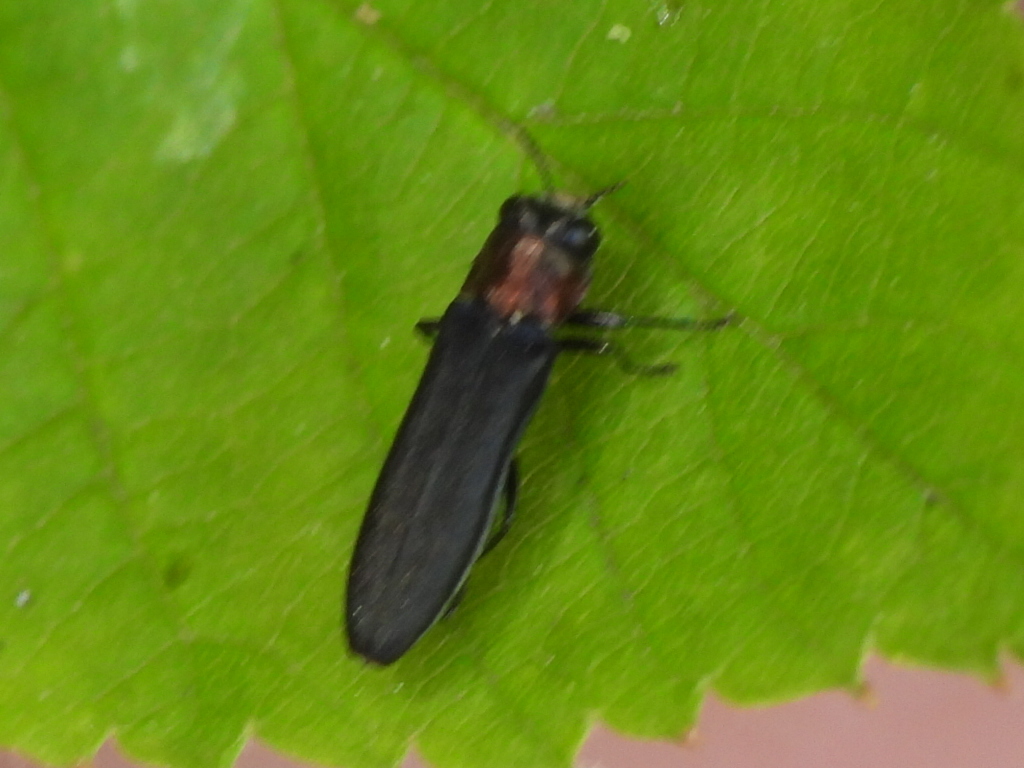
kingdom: Animalia
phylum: Arthropoda
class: Insecta
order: Coleoptera
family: Buprestidae
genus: Agrilus
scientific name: Agrilus ruficollis
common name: Red-necked cane borer beetle
